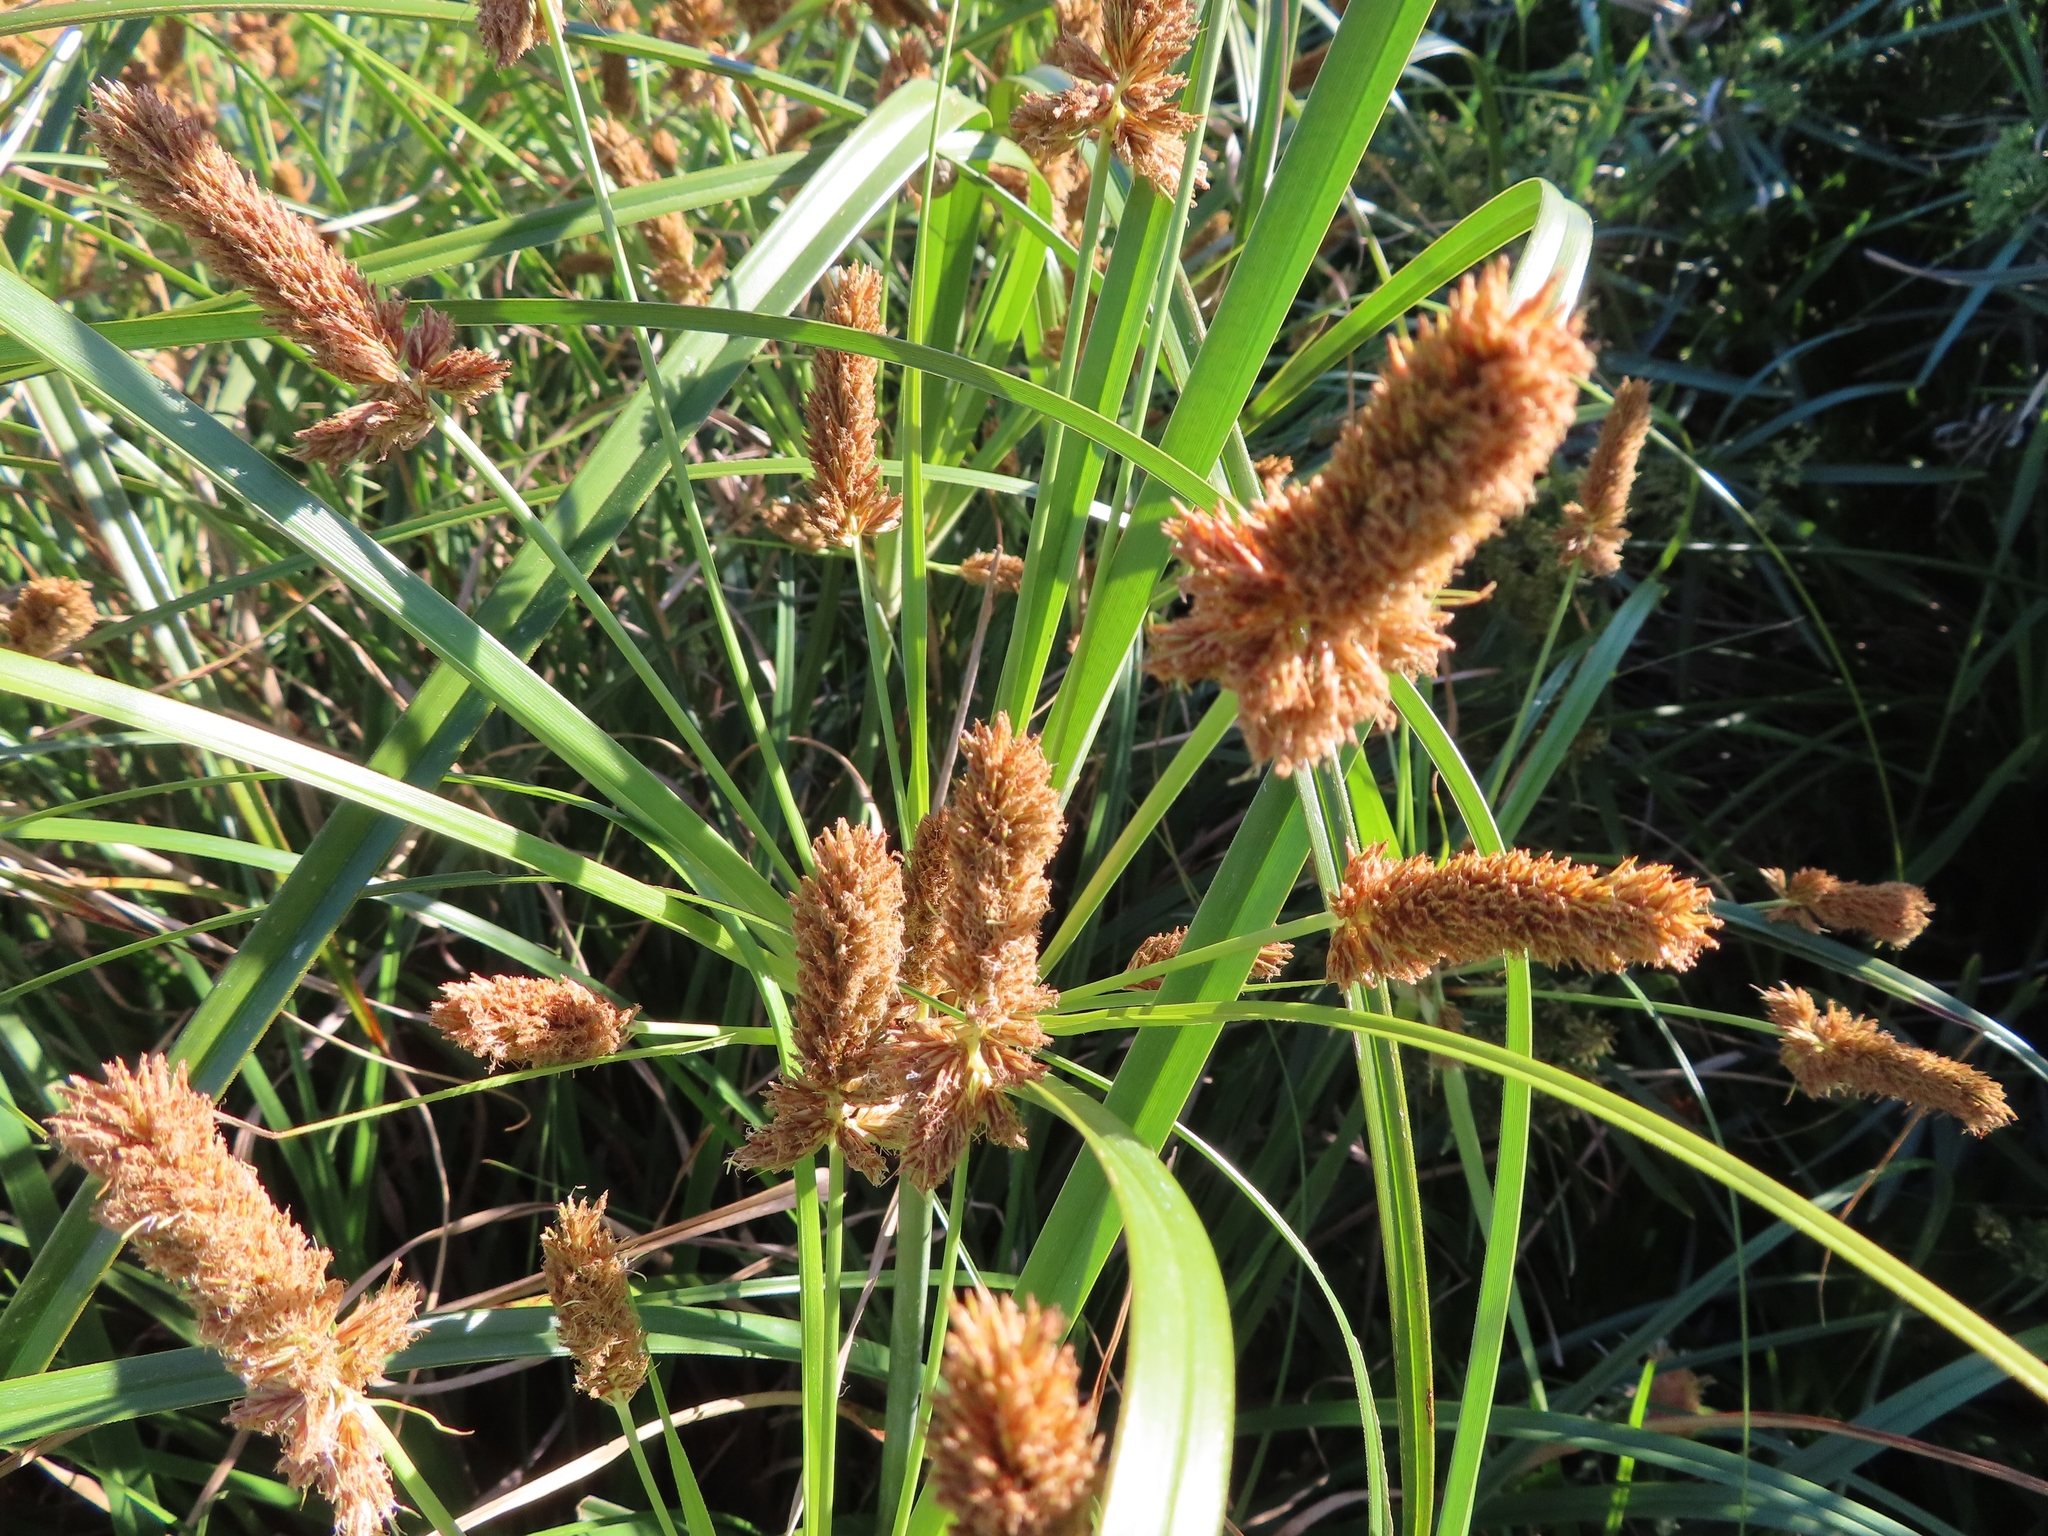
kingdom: Plantae
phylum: Tracheophyta
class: Liliopsida
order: Poales
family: Cyperaceae
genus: Cyperus
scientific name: Cyperus thunbergii
